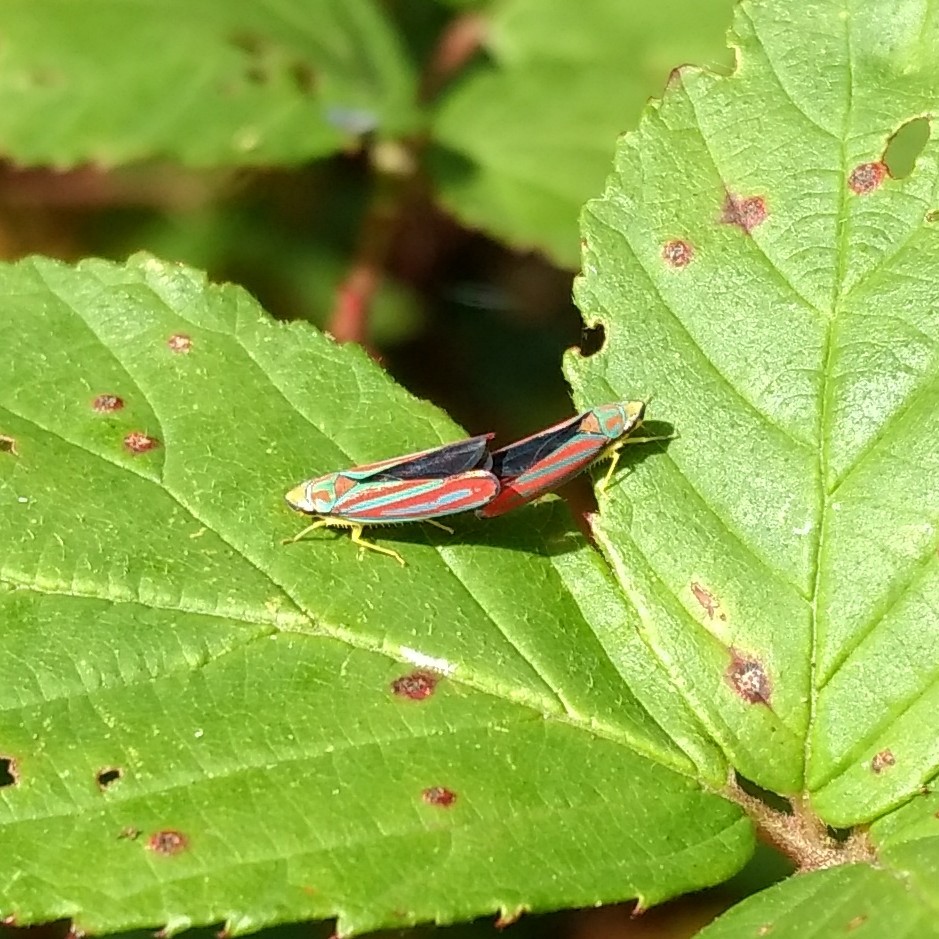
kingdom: Animalia
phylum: Arthropoda
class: Insecta
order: Hemiptera
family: Cicadellidae
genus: Graphocephala
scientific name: Graphocephala coccinea
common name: Candy-striped leafhopper
